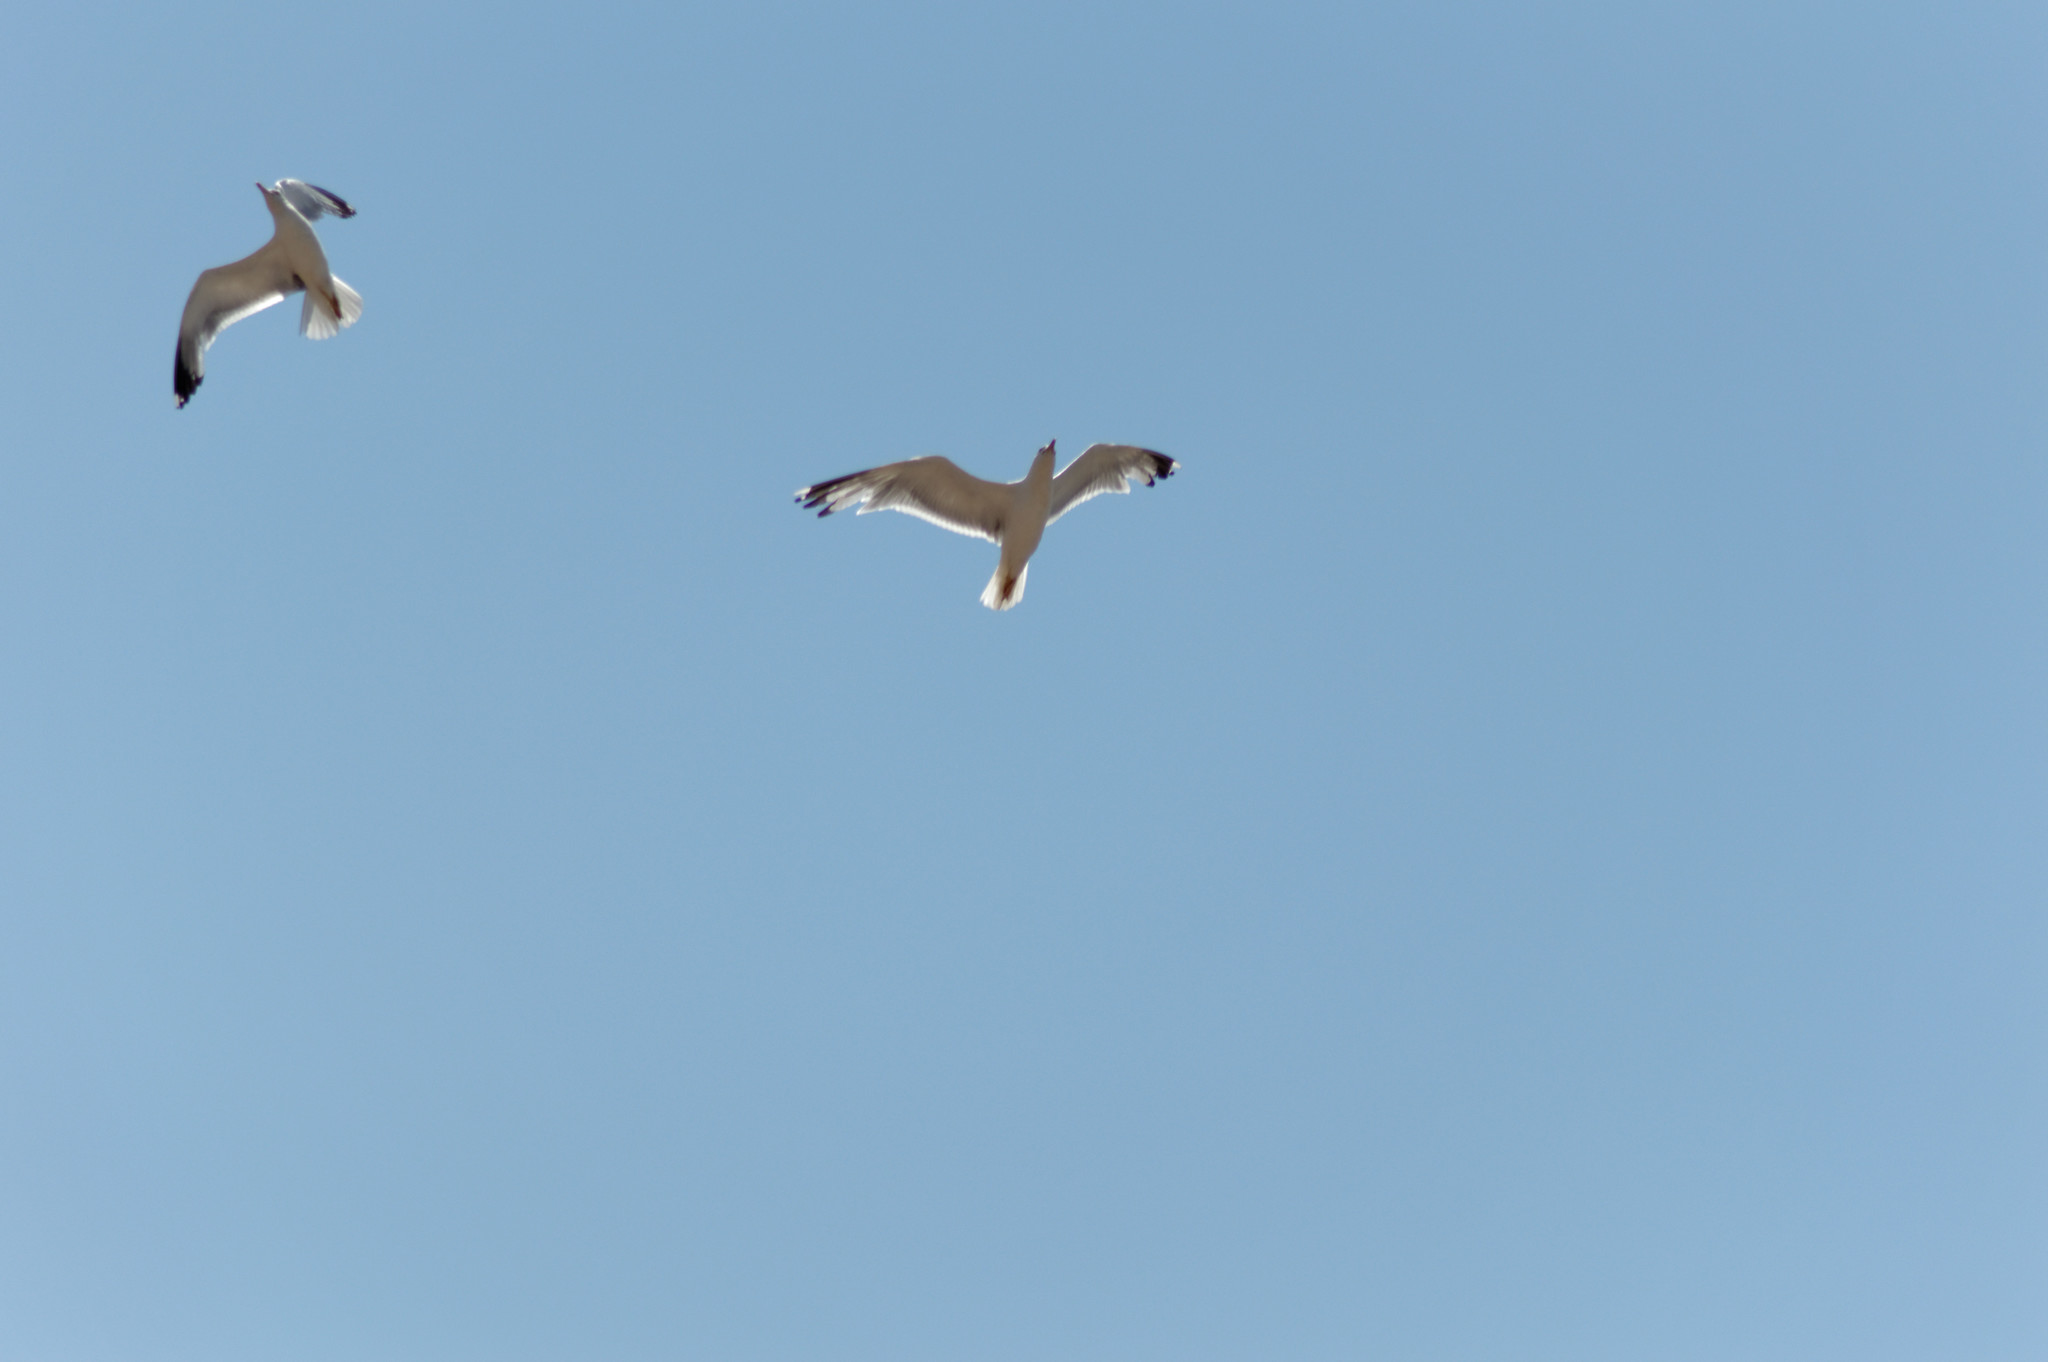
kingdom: Animalia
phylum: Chordata
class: Aves
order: Charadriiformes
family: Laridae
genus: Larus
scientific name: Larus michahellis
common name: Yellow-legged gull
